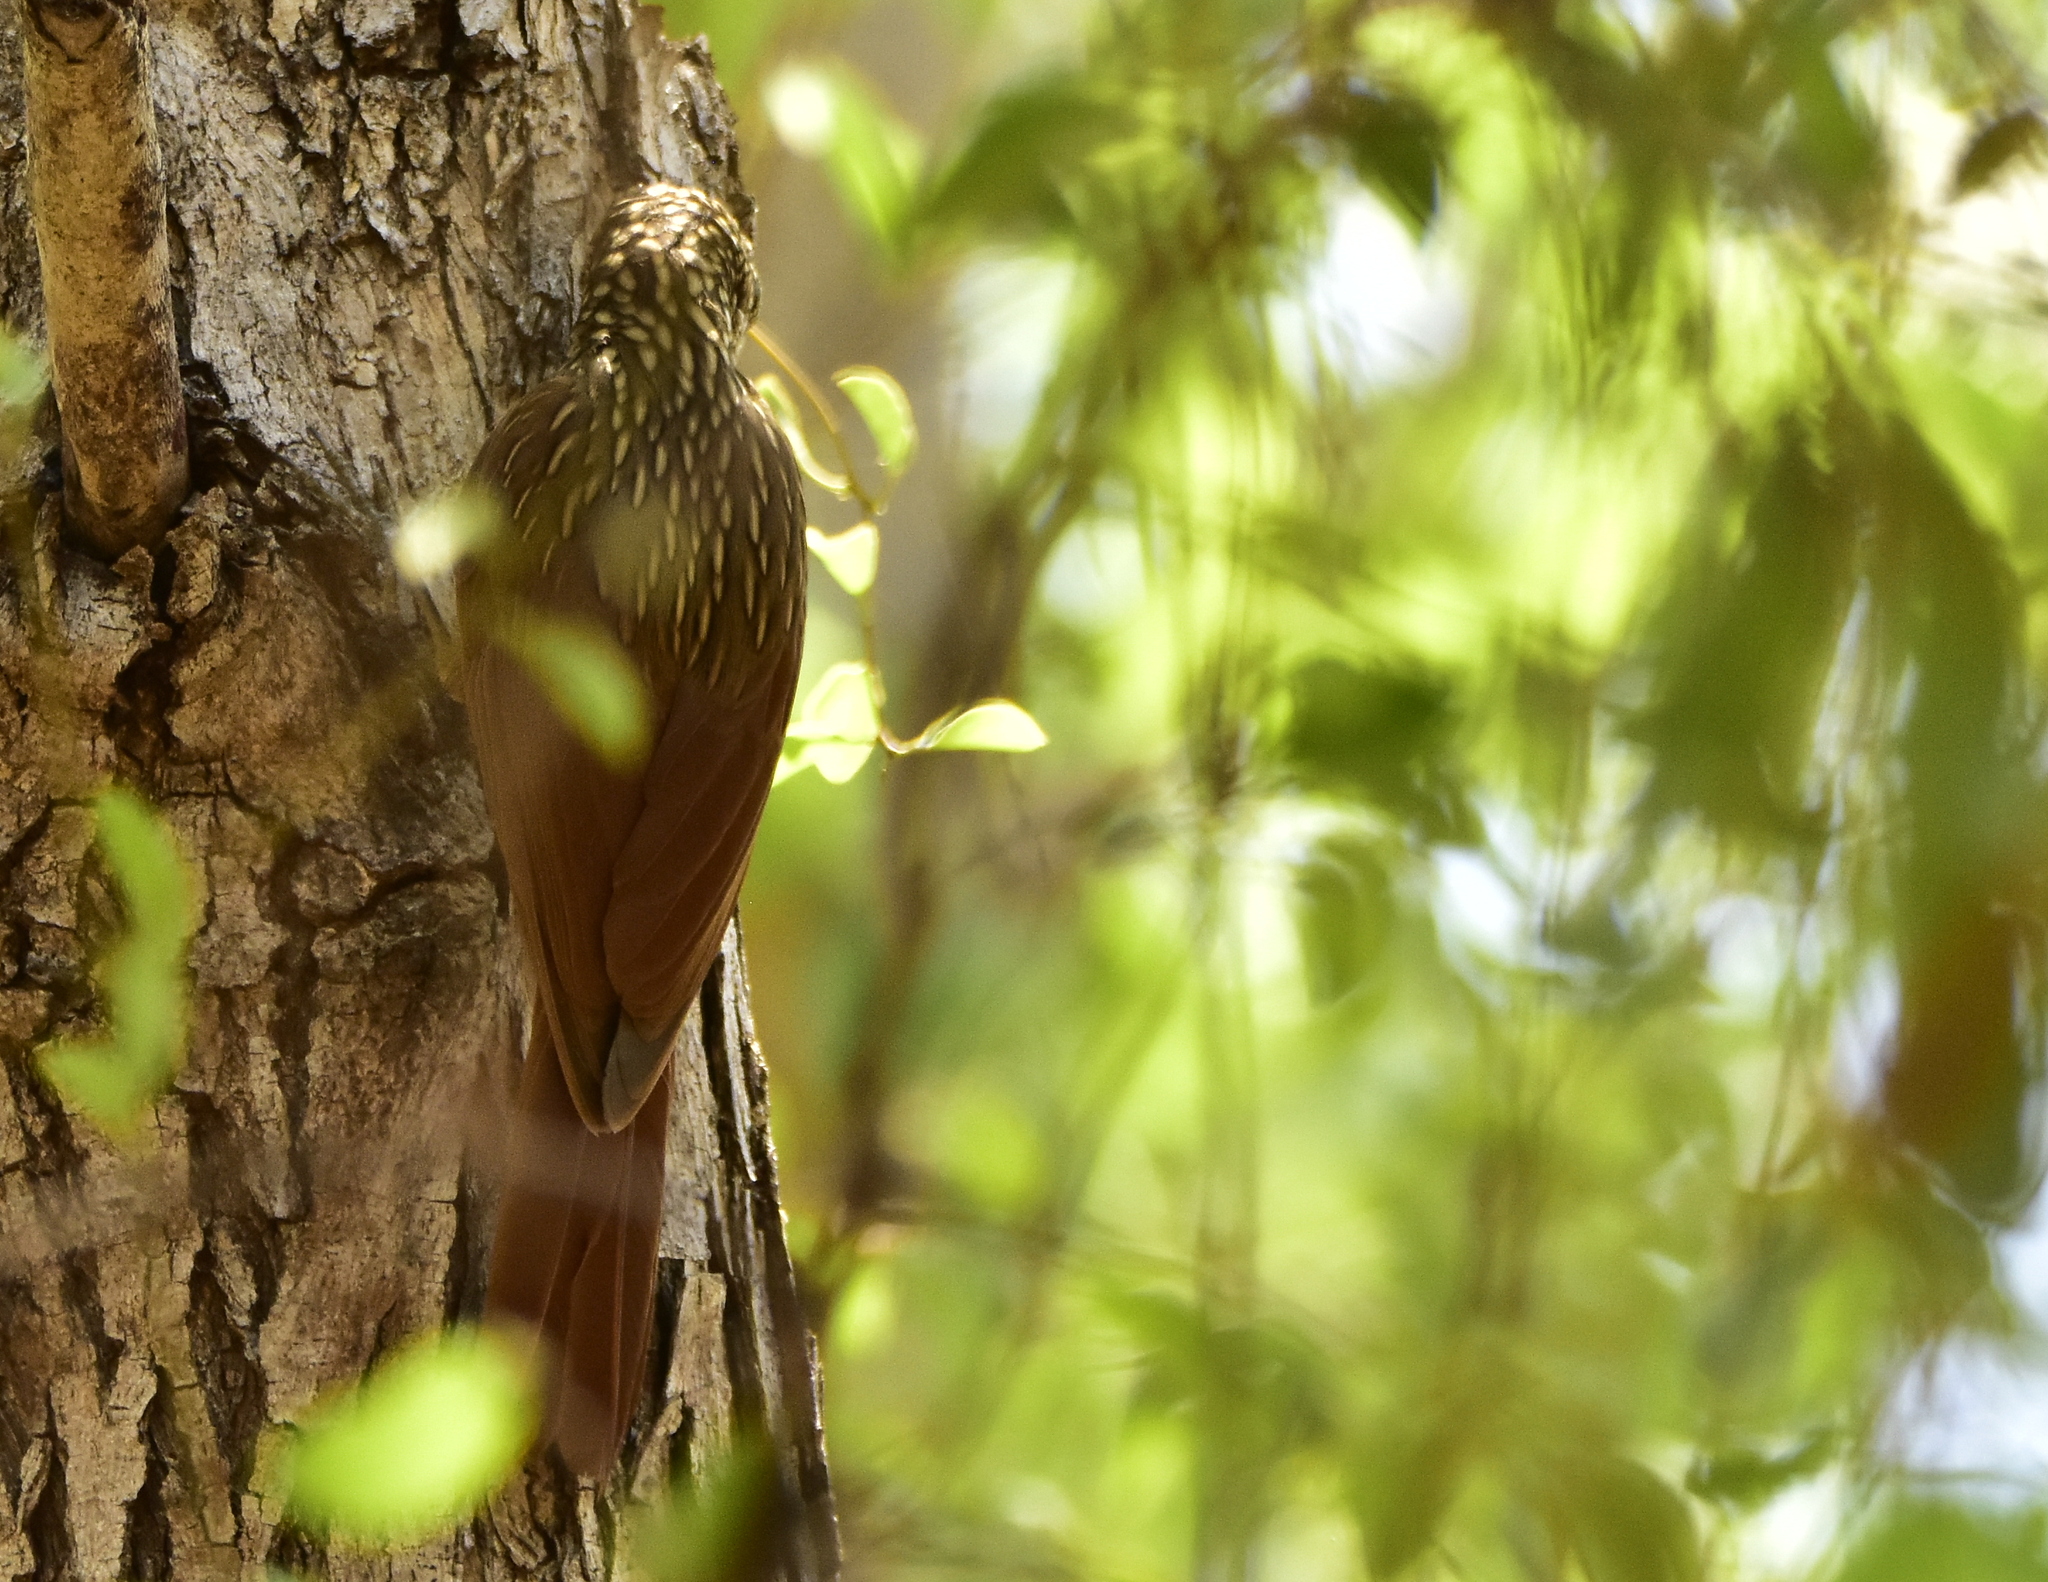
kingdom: Animalia
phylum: Chordata
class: Aves
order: Passeriformes
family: Furnariidae
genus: Xiphorhynchus
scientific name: Xiphorhynchus flavigaster
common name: Ivory-billed woodcreeper
